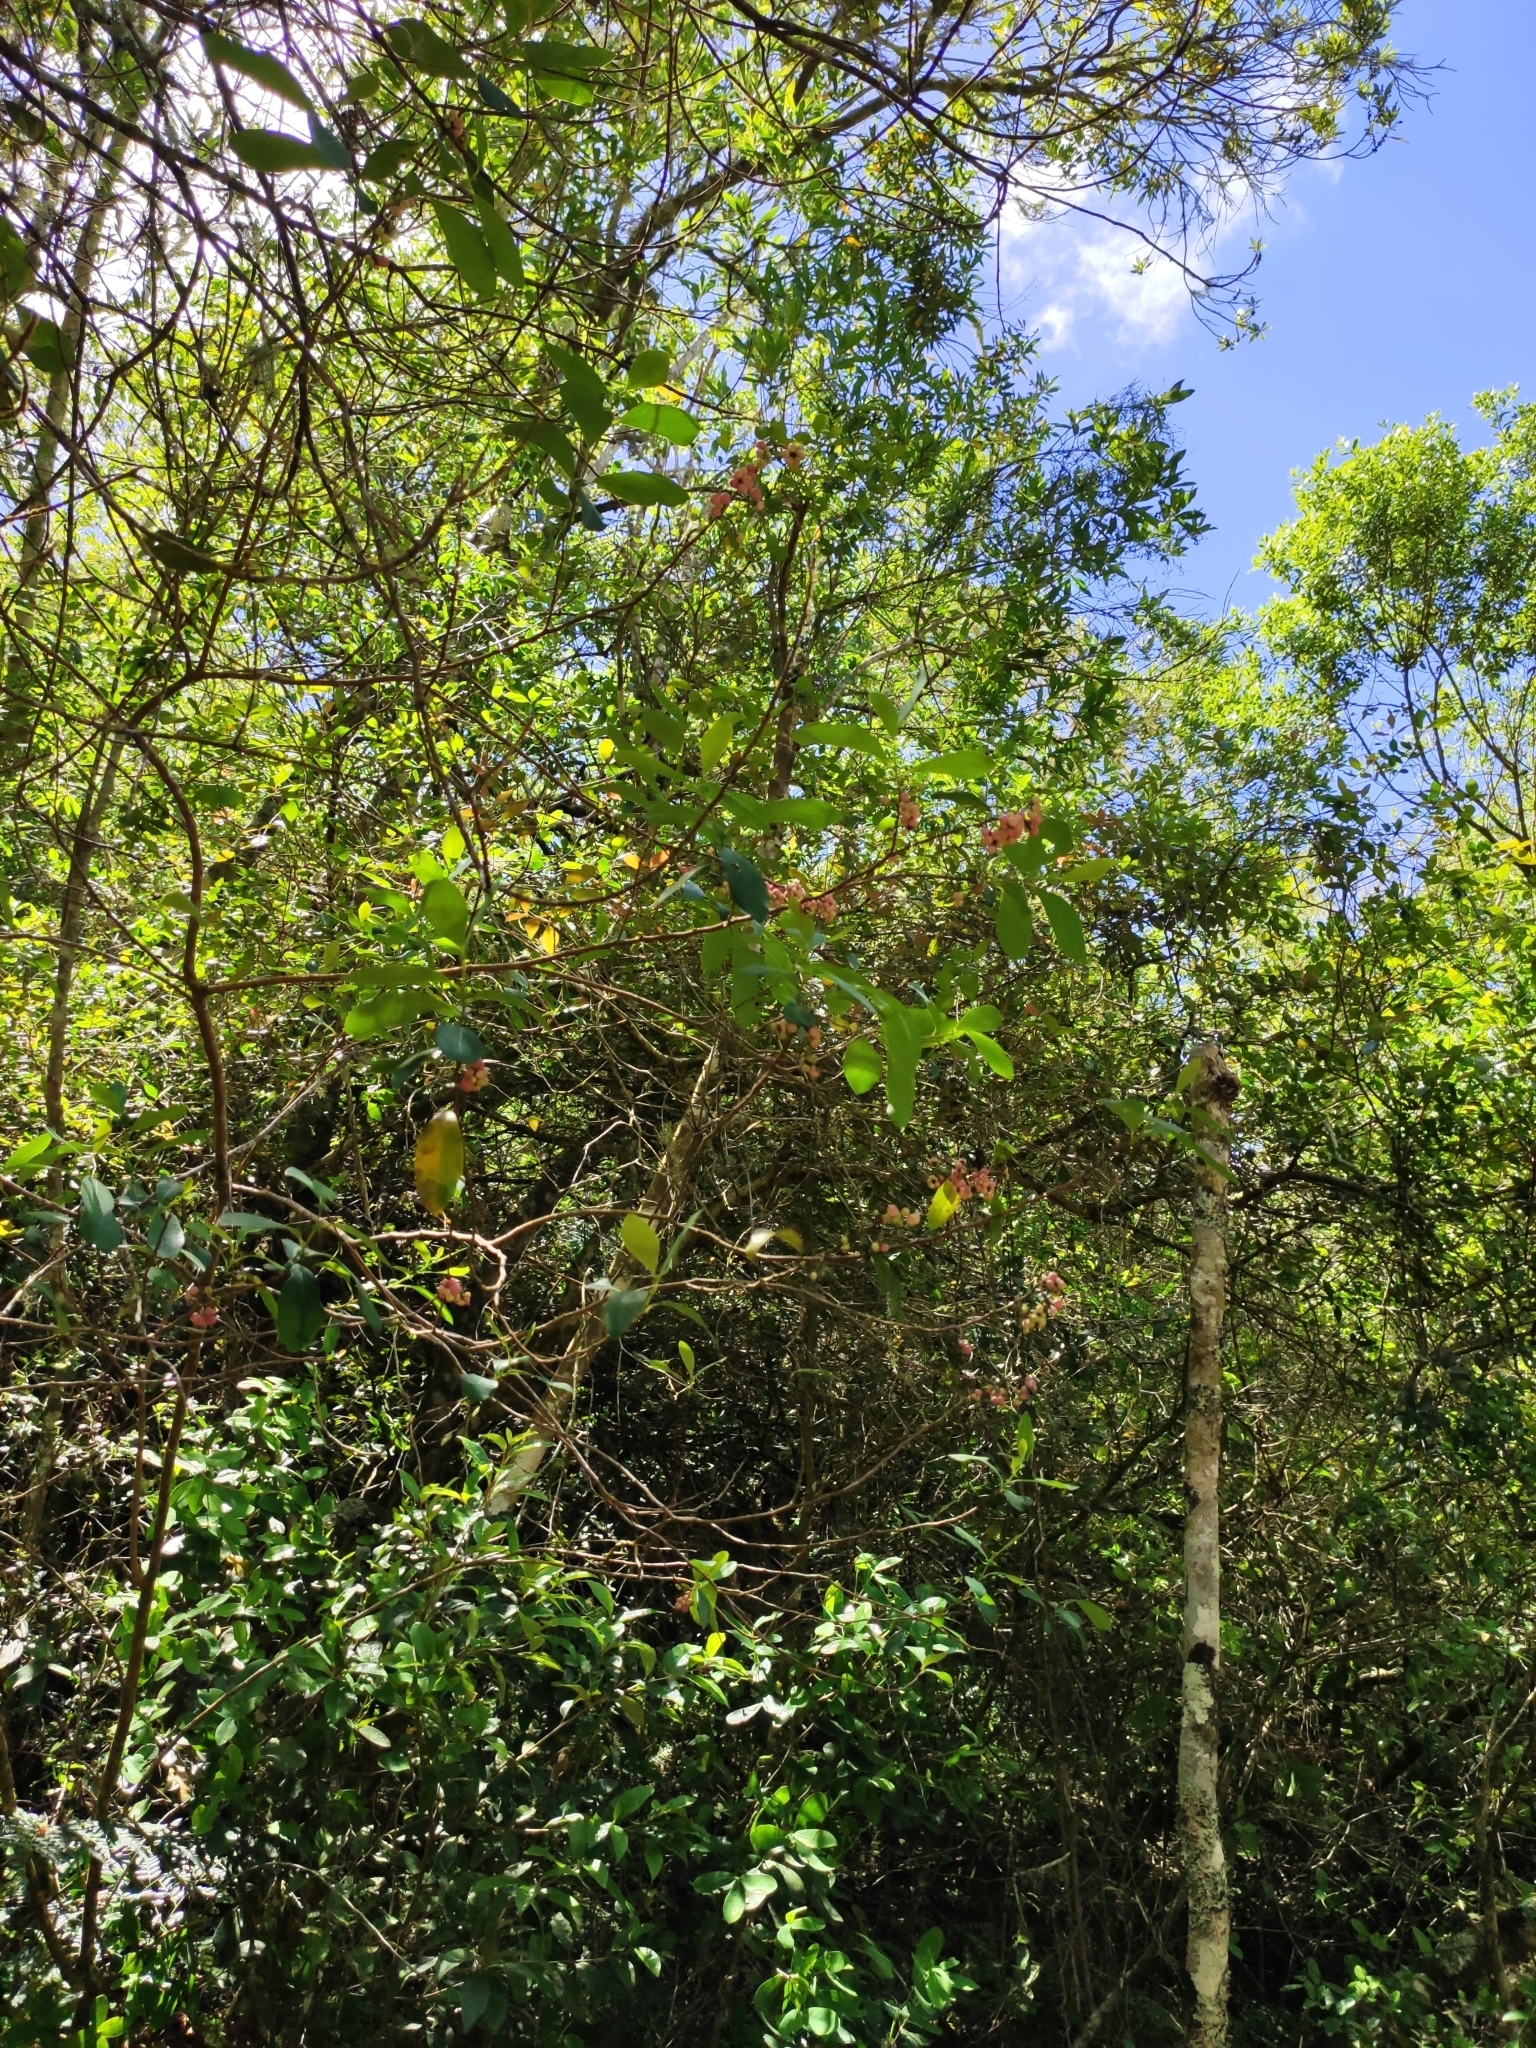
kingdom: Plantae
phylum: Tracheophyta
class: Magnoliopsida
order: Malpighiales
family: Salicaceae
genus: Azara
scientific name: Azara uruguayensis
